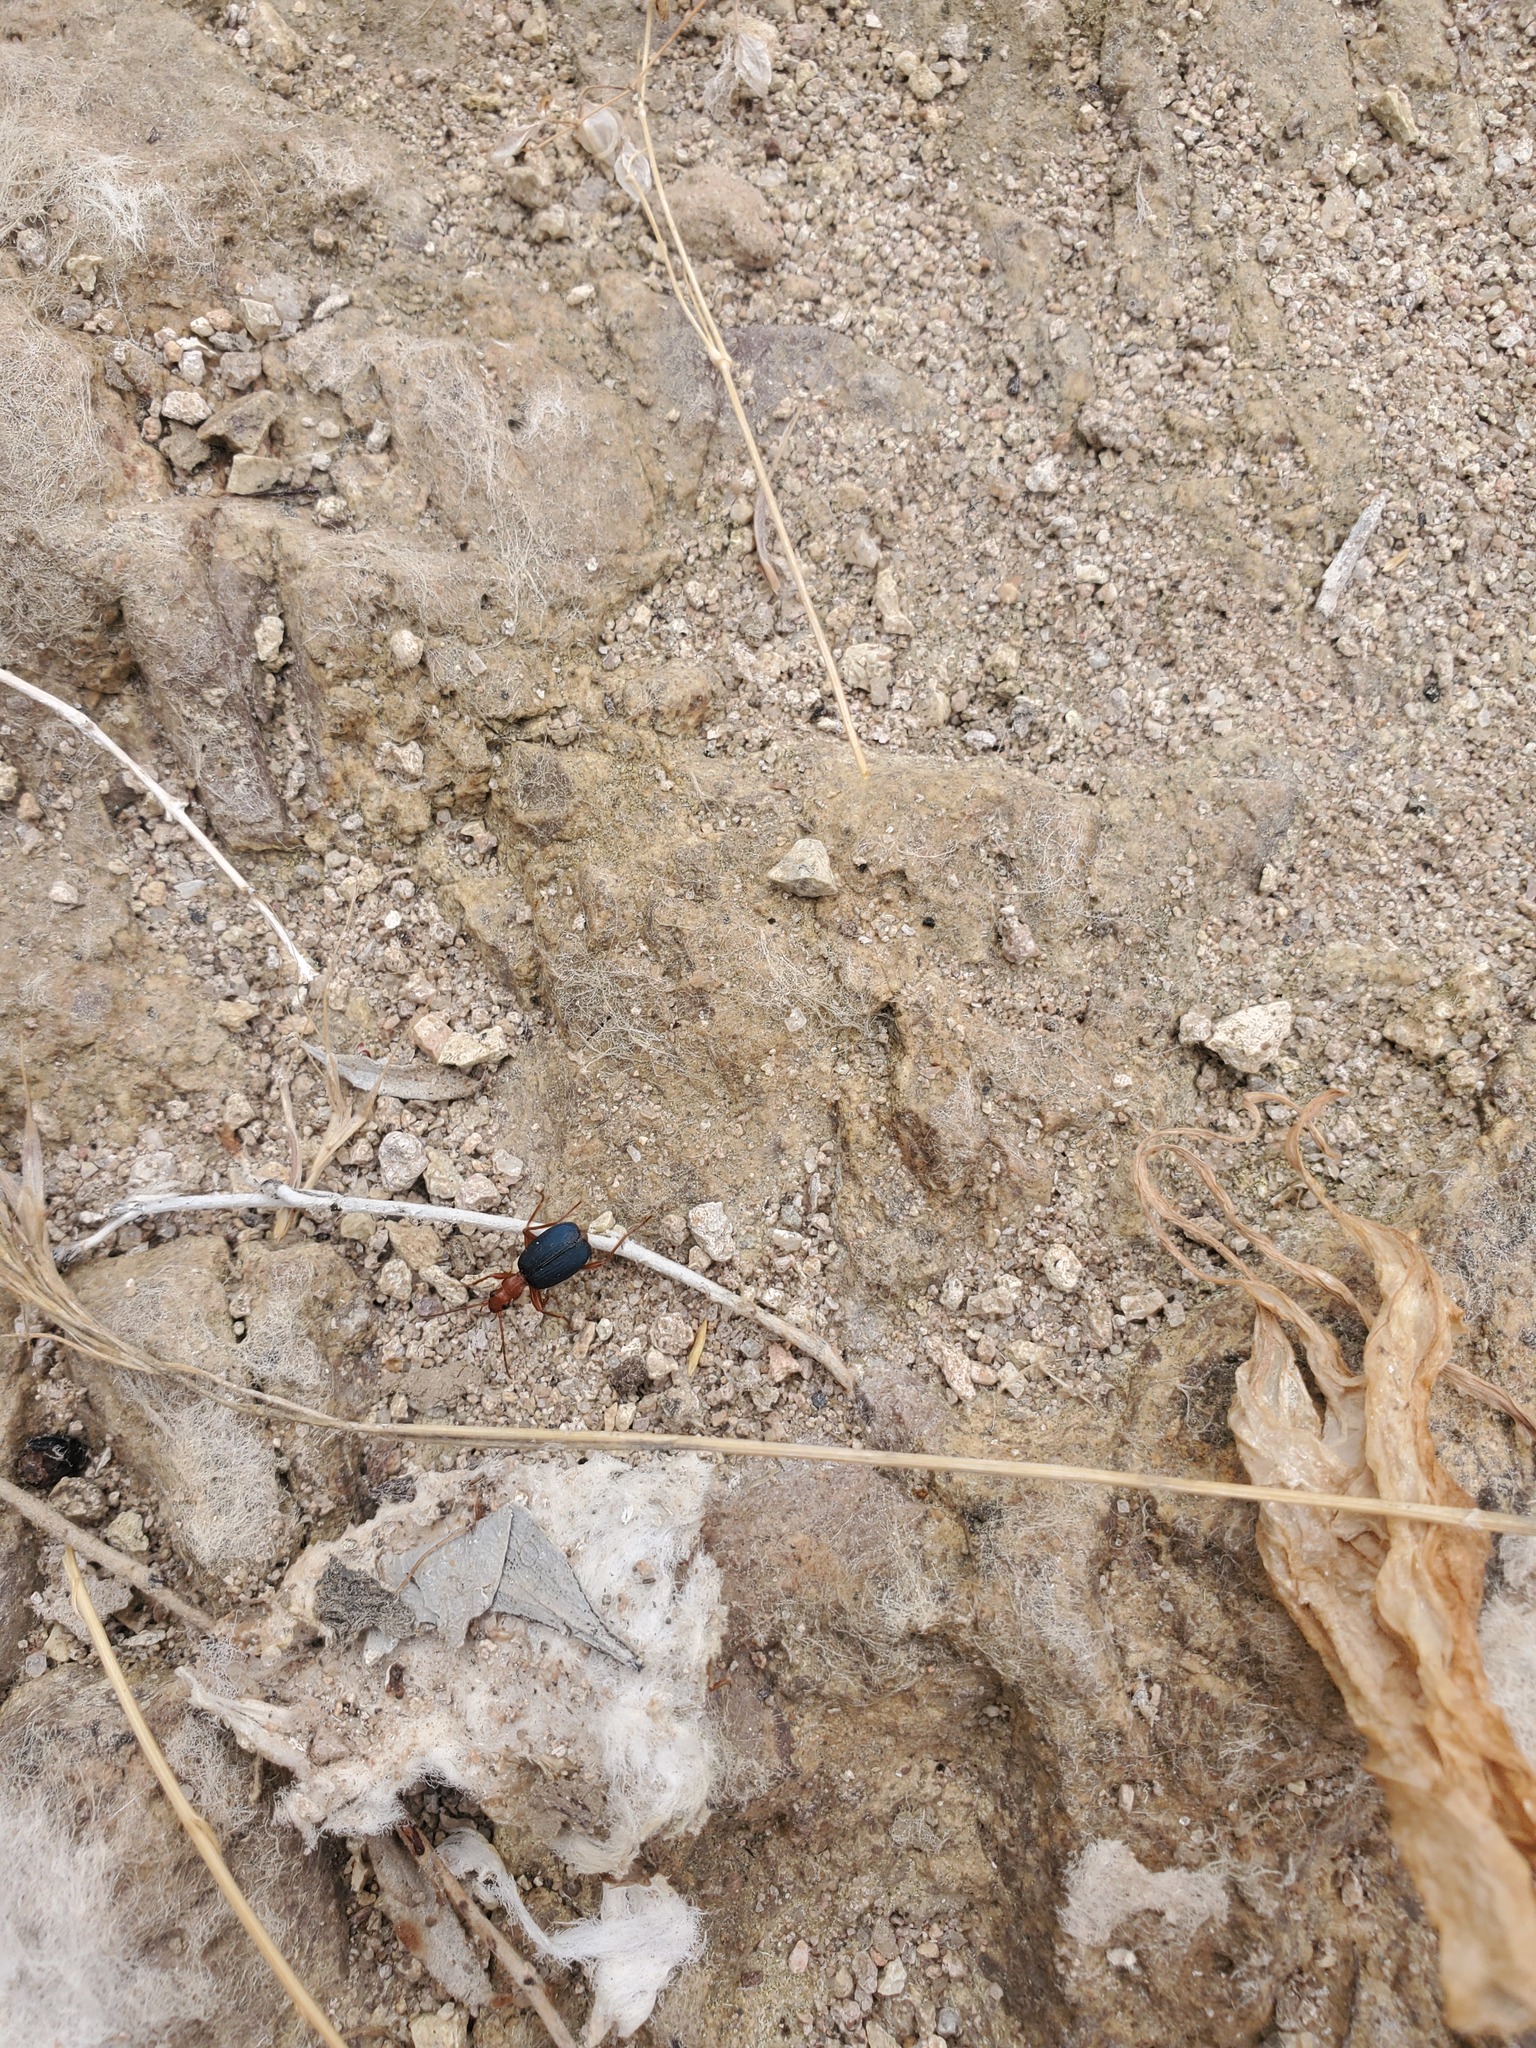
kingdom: Animalia
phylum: Arthropoda
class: Insecta
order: Coleoptera
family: Carabidae
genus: Brachinus
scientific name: Brachinus
